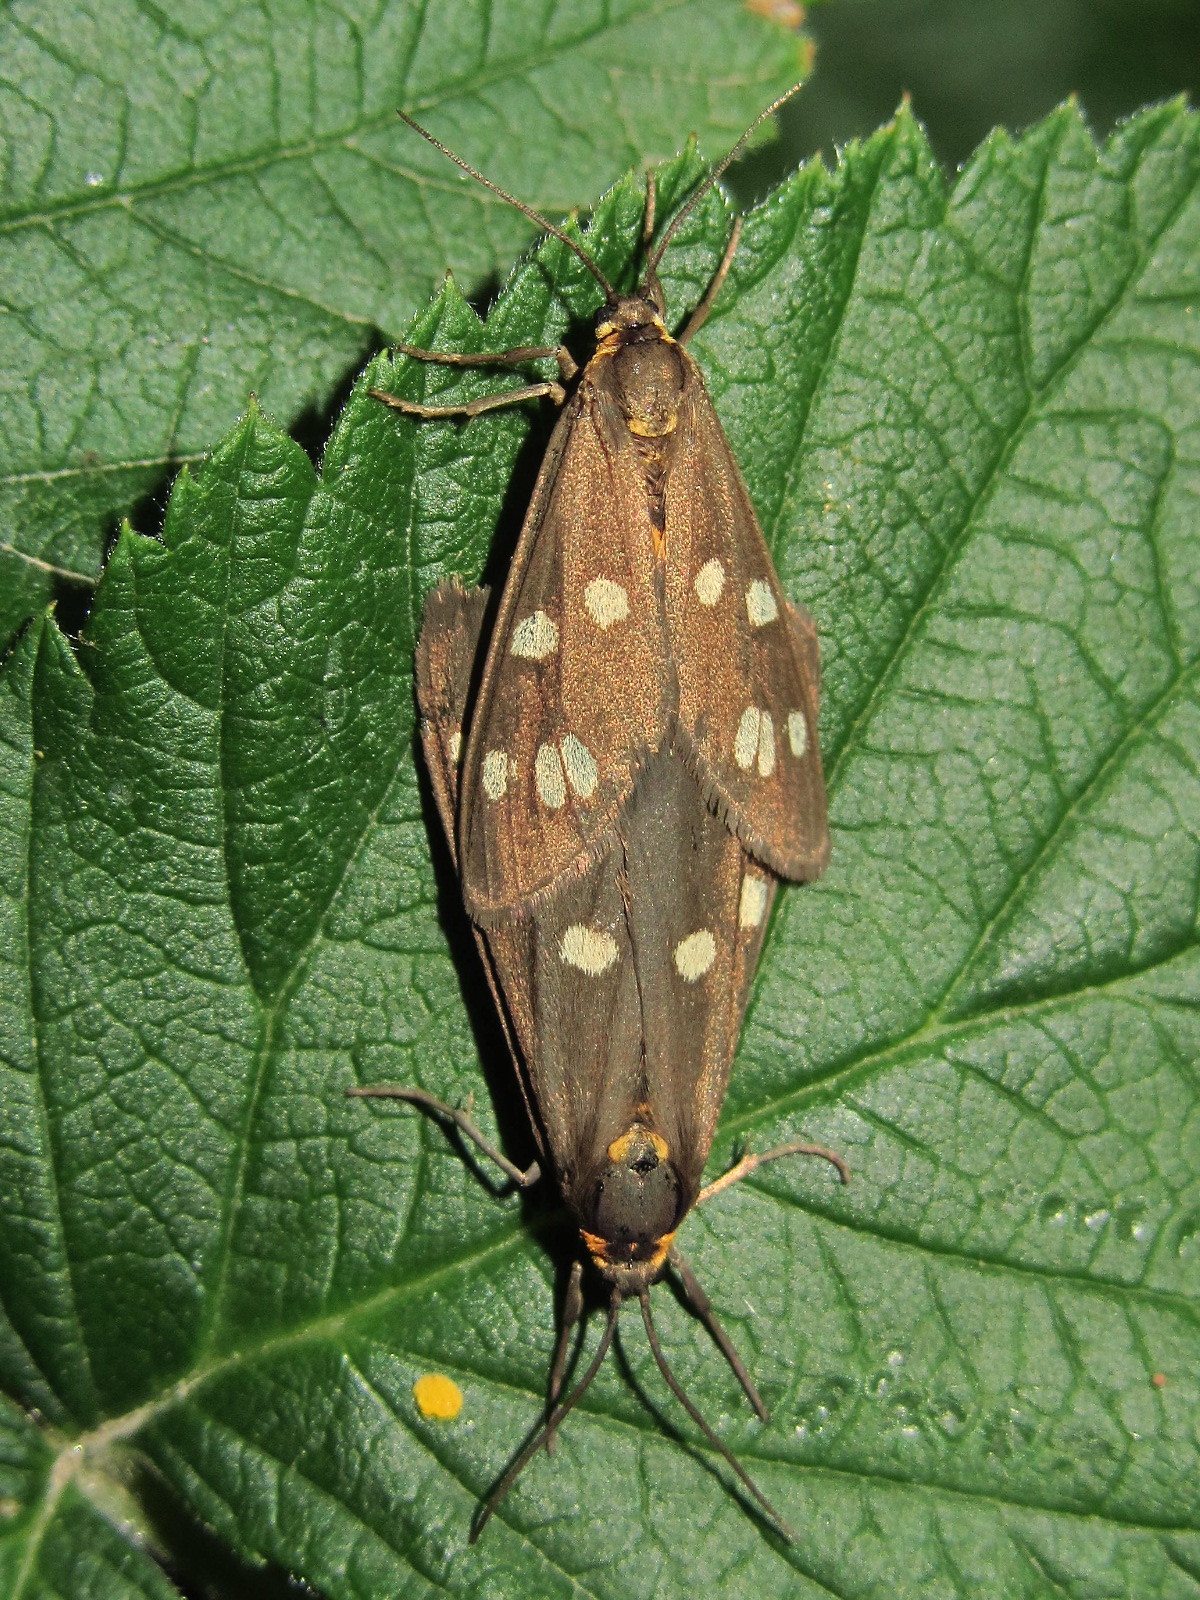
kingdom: Animalia
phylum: Arthropoda
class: Insecta
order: Lepidoptera
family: Erebidae
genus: Dysauxes
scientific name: Dysauxes punctata
